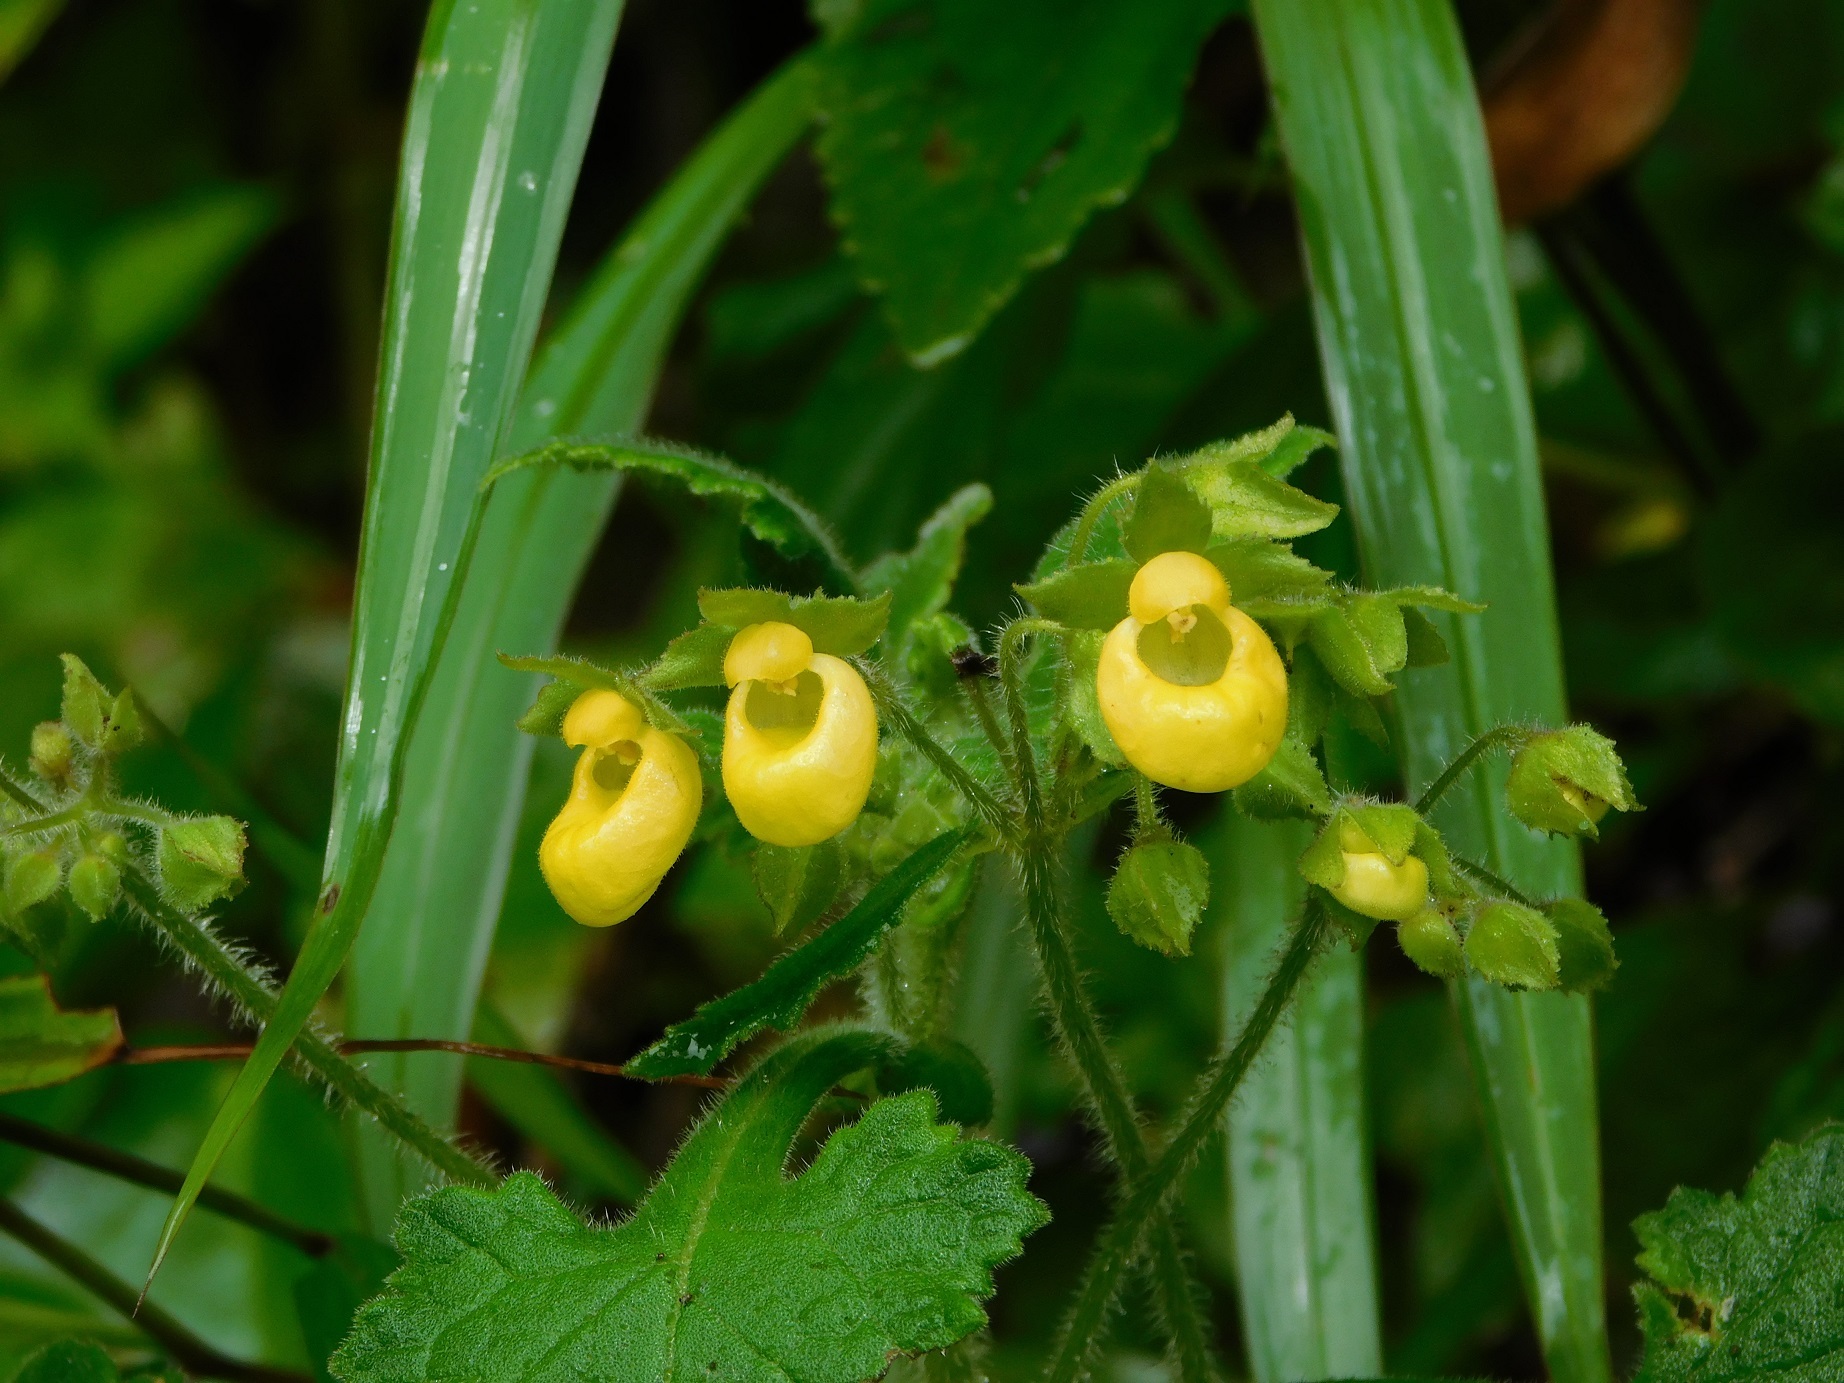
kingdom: Plantae
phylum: Tracheophyta
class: Magnoliopsida
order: Lamiales
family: Calceolariaceae
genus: Calceolaria
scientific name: Calceolaria perfoliata
